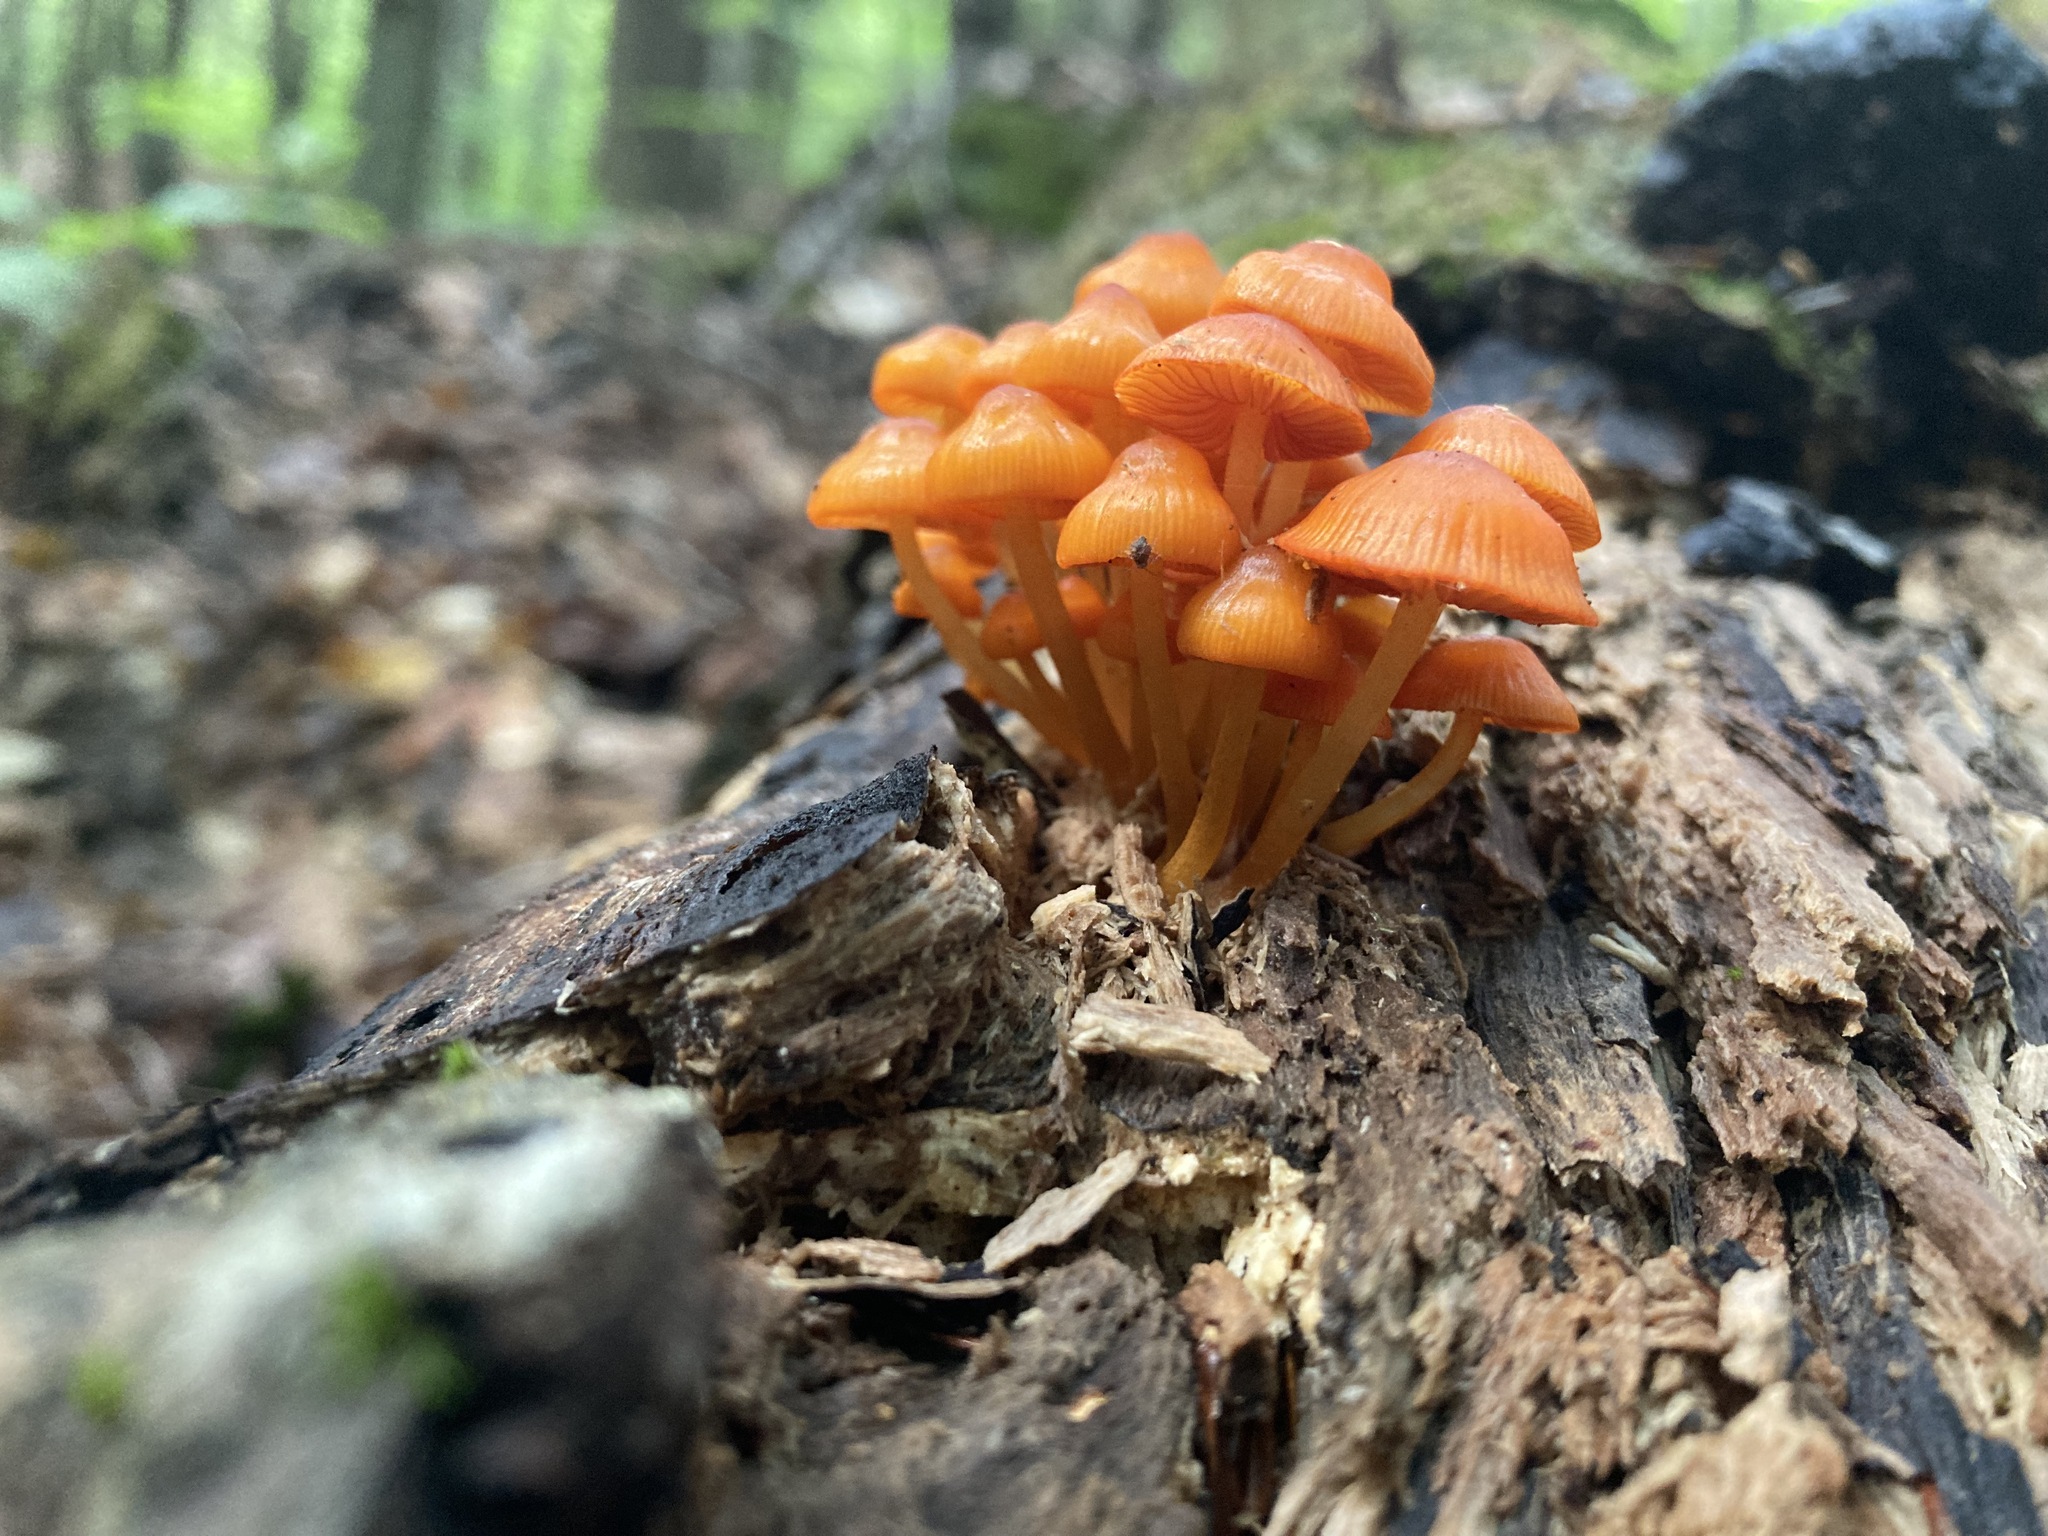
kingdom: Fungi
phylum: Basidiomycota
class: Agaricomycetes
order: Agaricales
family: Mycenaceae
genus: Mycena
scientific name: Mycena leaiana
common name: Orange mycena
